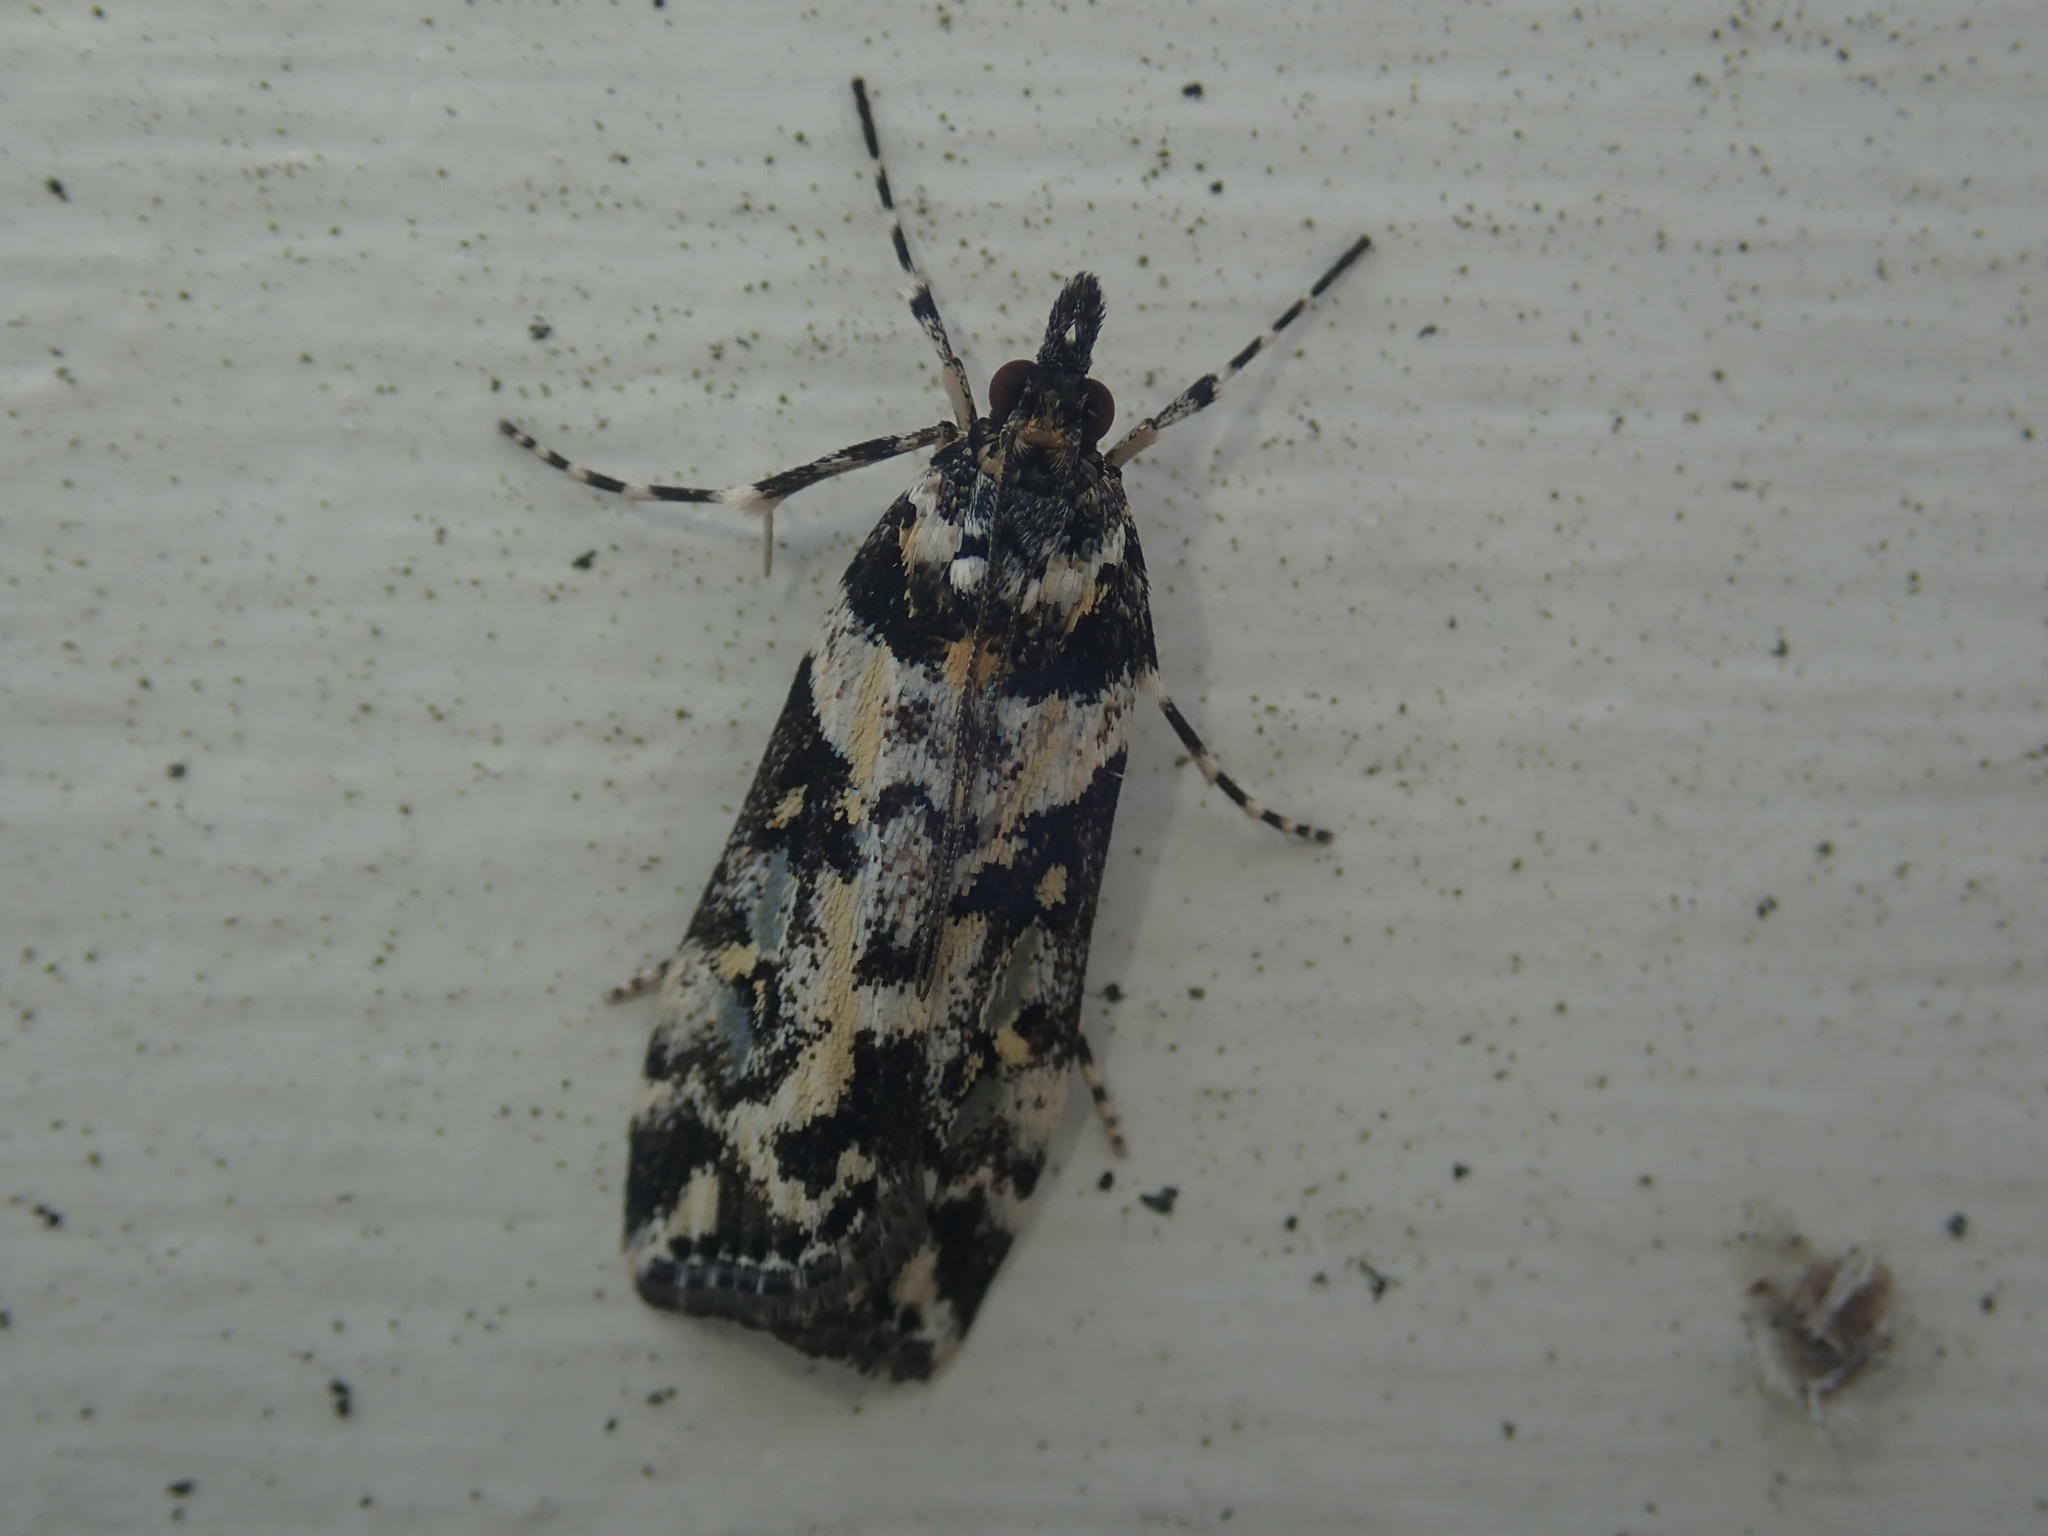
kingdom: Animalia
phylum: Arthropoda
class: Insecta
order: Lepidoptera
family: Crambidae
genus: Eudonia
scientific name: Eudonia diphtheralis
